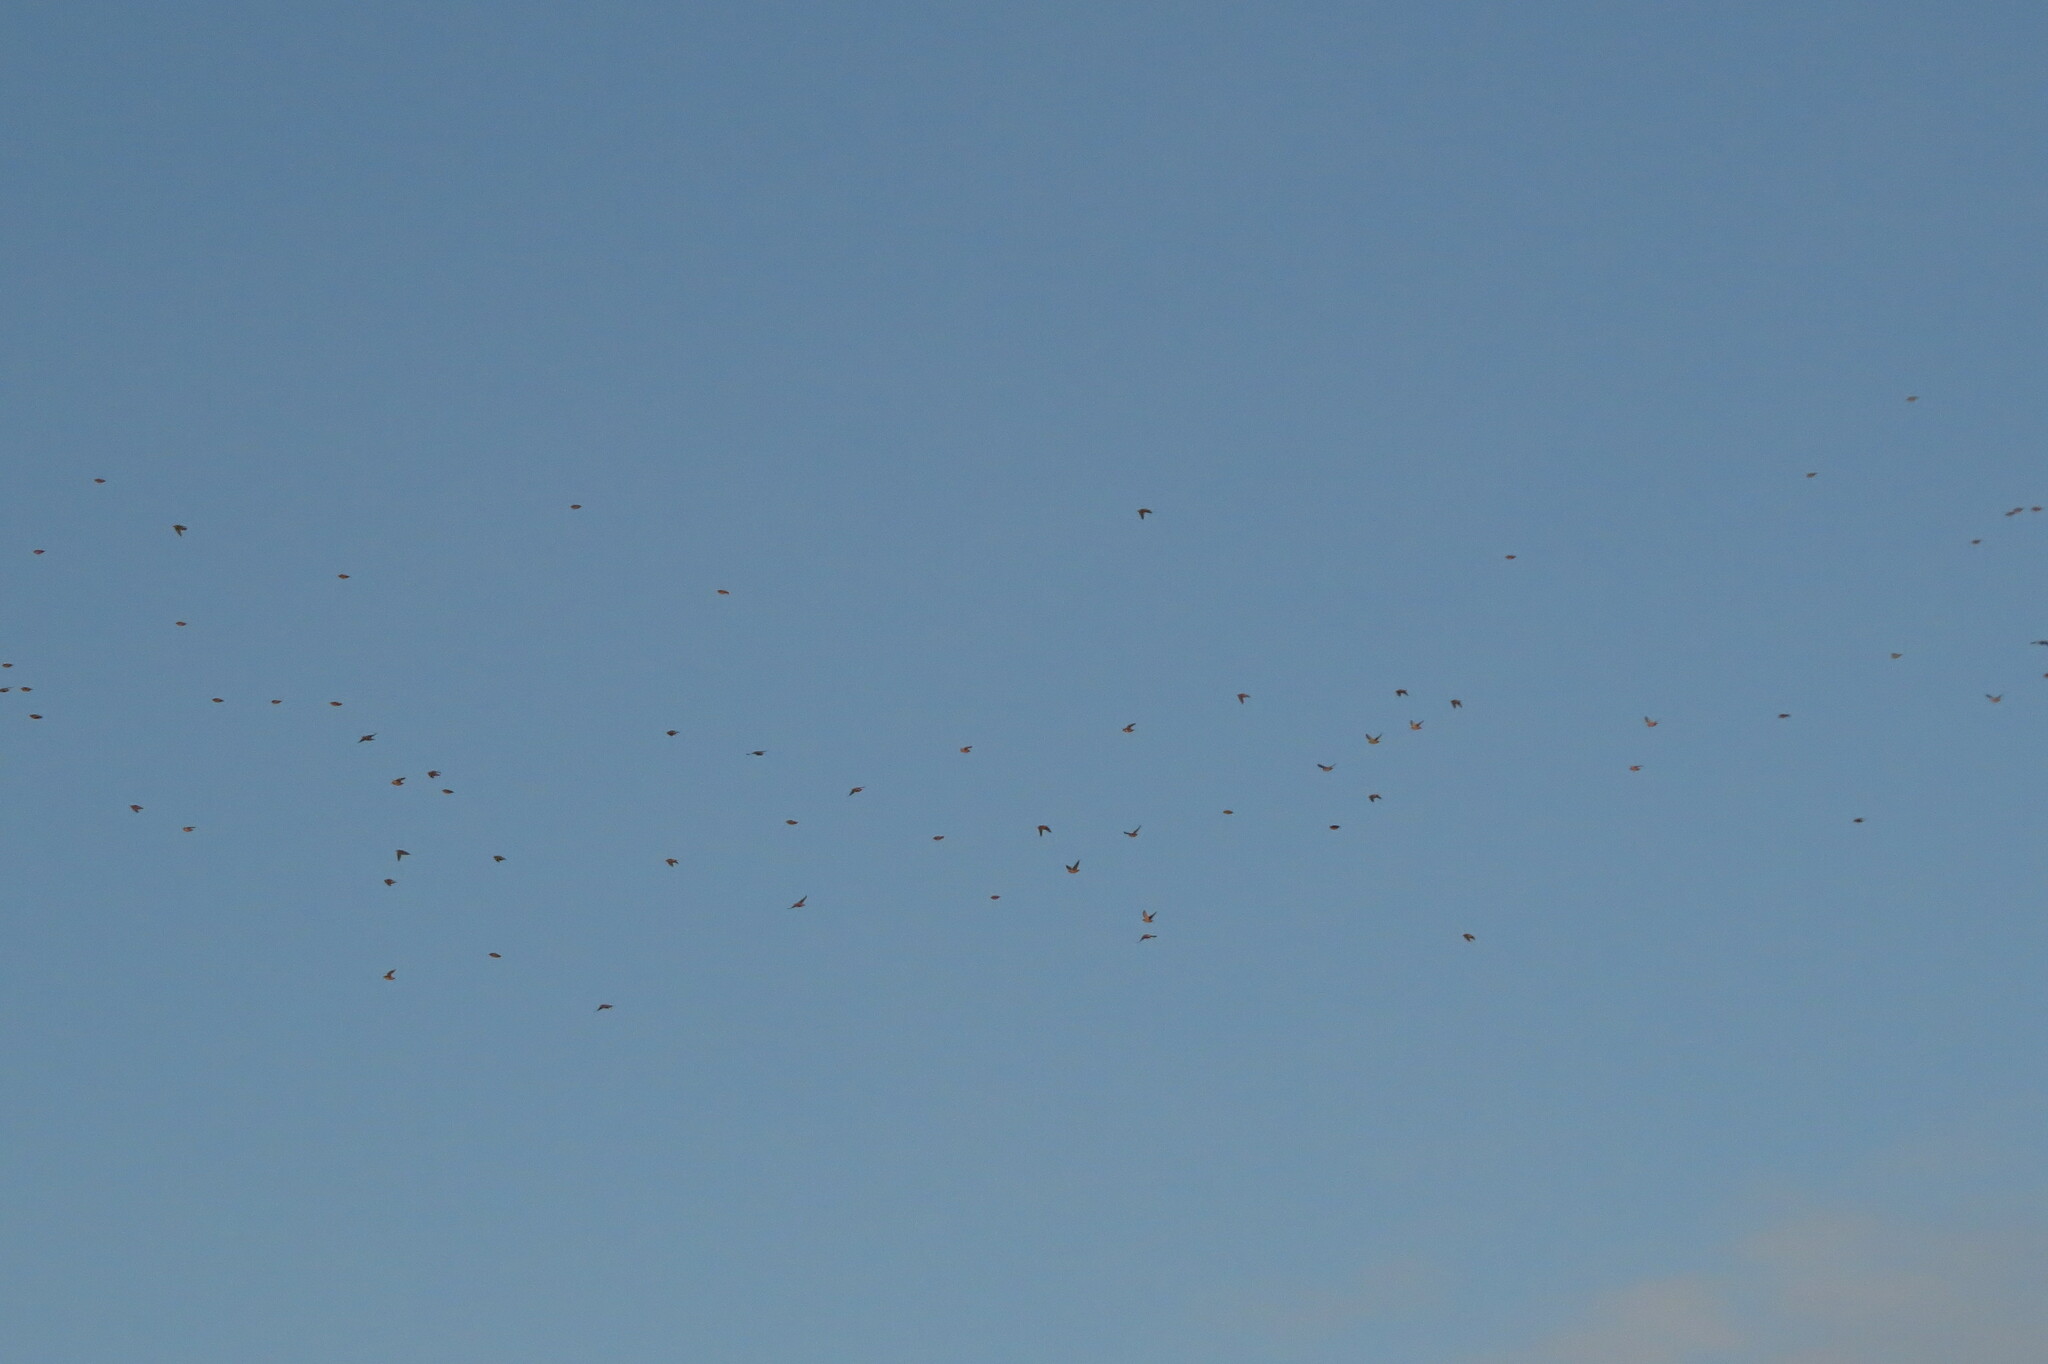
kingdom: Animalia
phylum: Chordata
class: Aves
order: Passeriformes
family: Bombycillidae
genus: Bombycilla
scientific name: Bombycilla garrulus
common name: Bohemian waxwing
